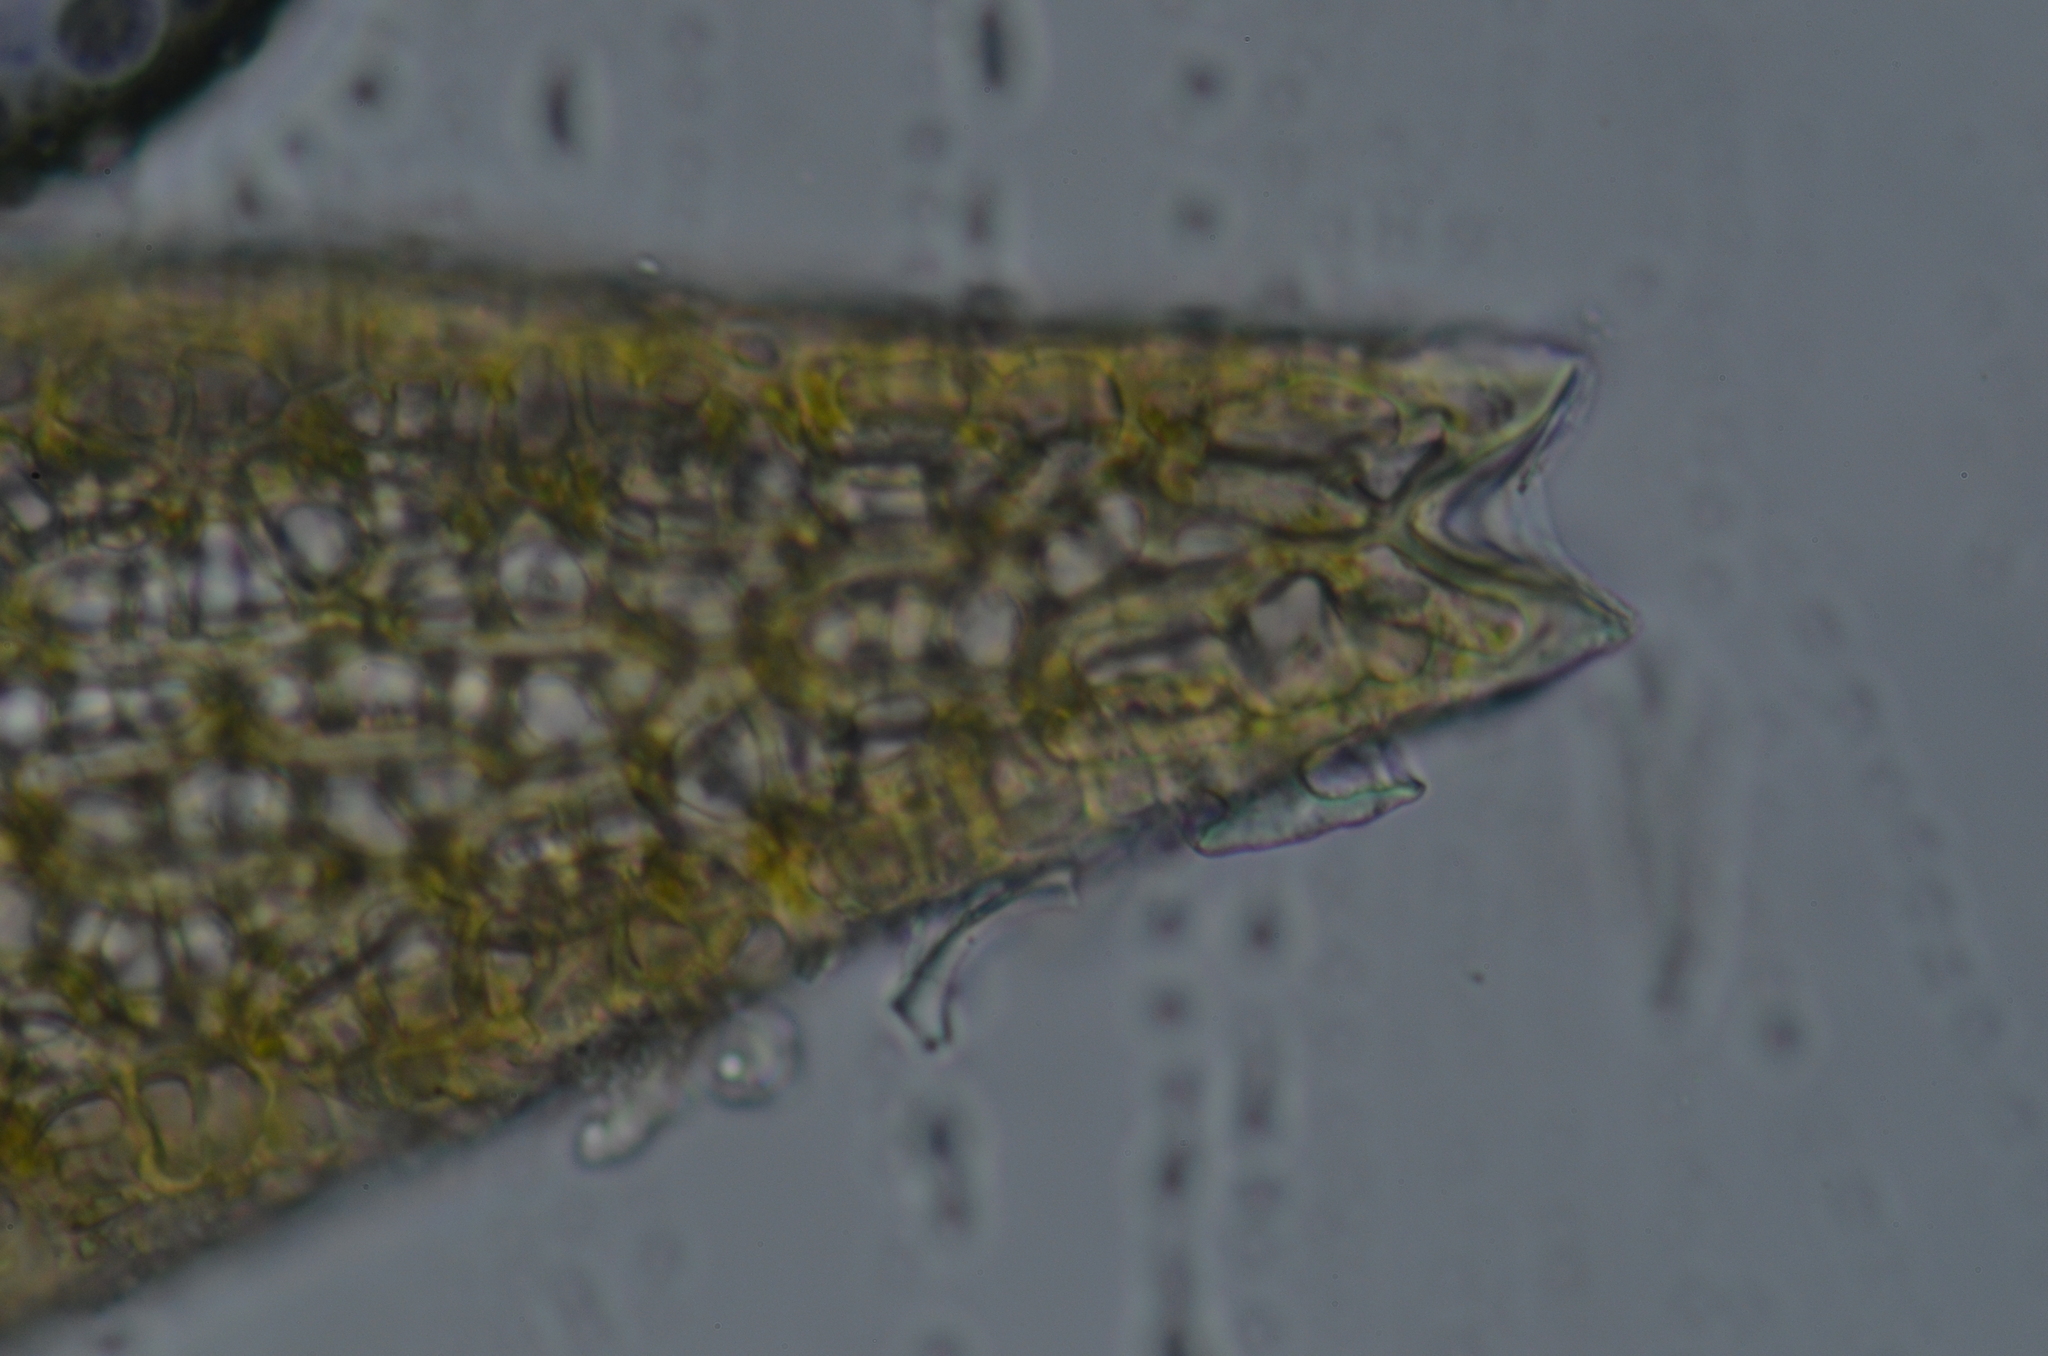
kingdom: Plantae
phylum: Bryophyta
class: Sphagnopsida
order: Sphagnales
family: Sphagnaceae
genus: Sphagnum
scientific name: Sphagnum fuscum
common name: Brown peat moss
